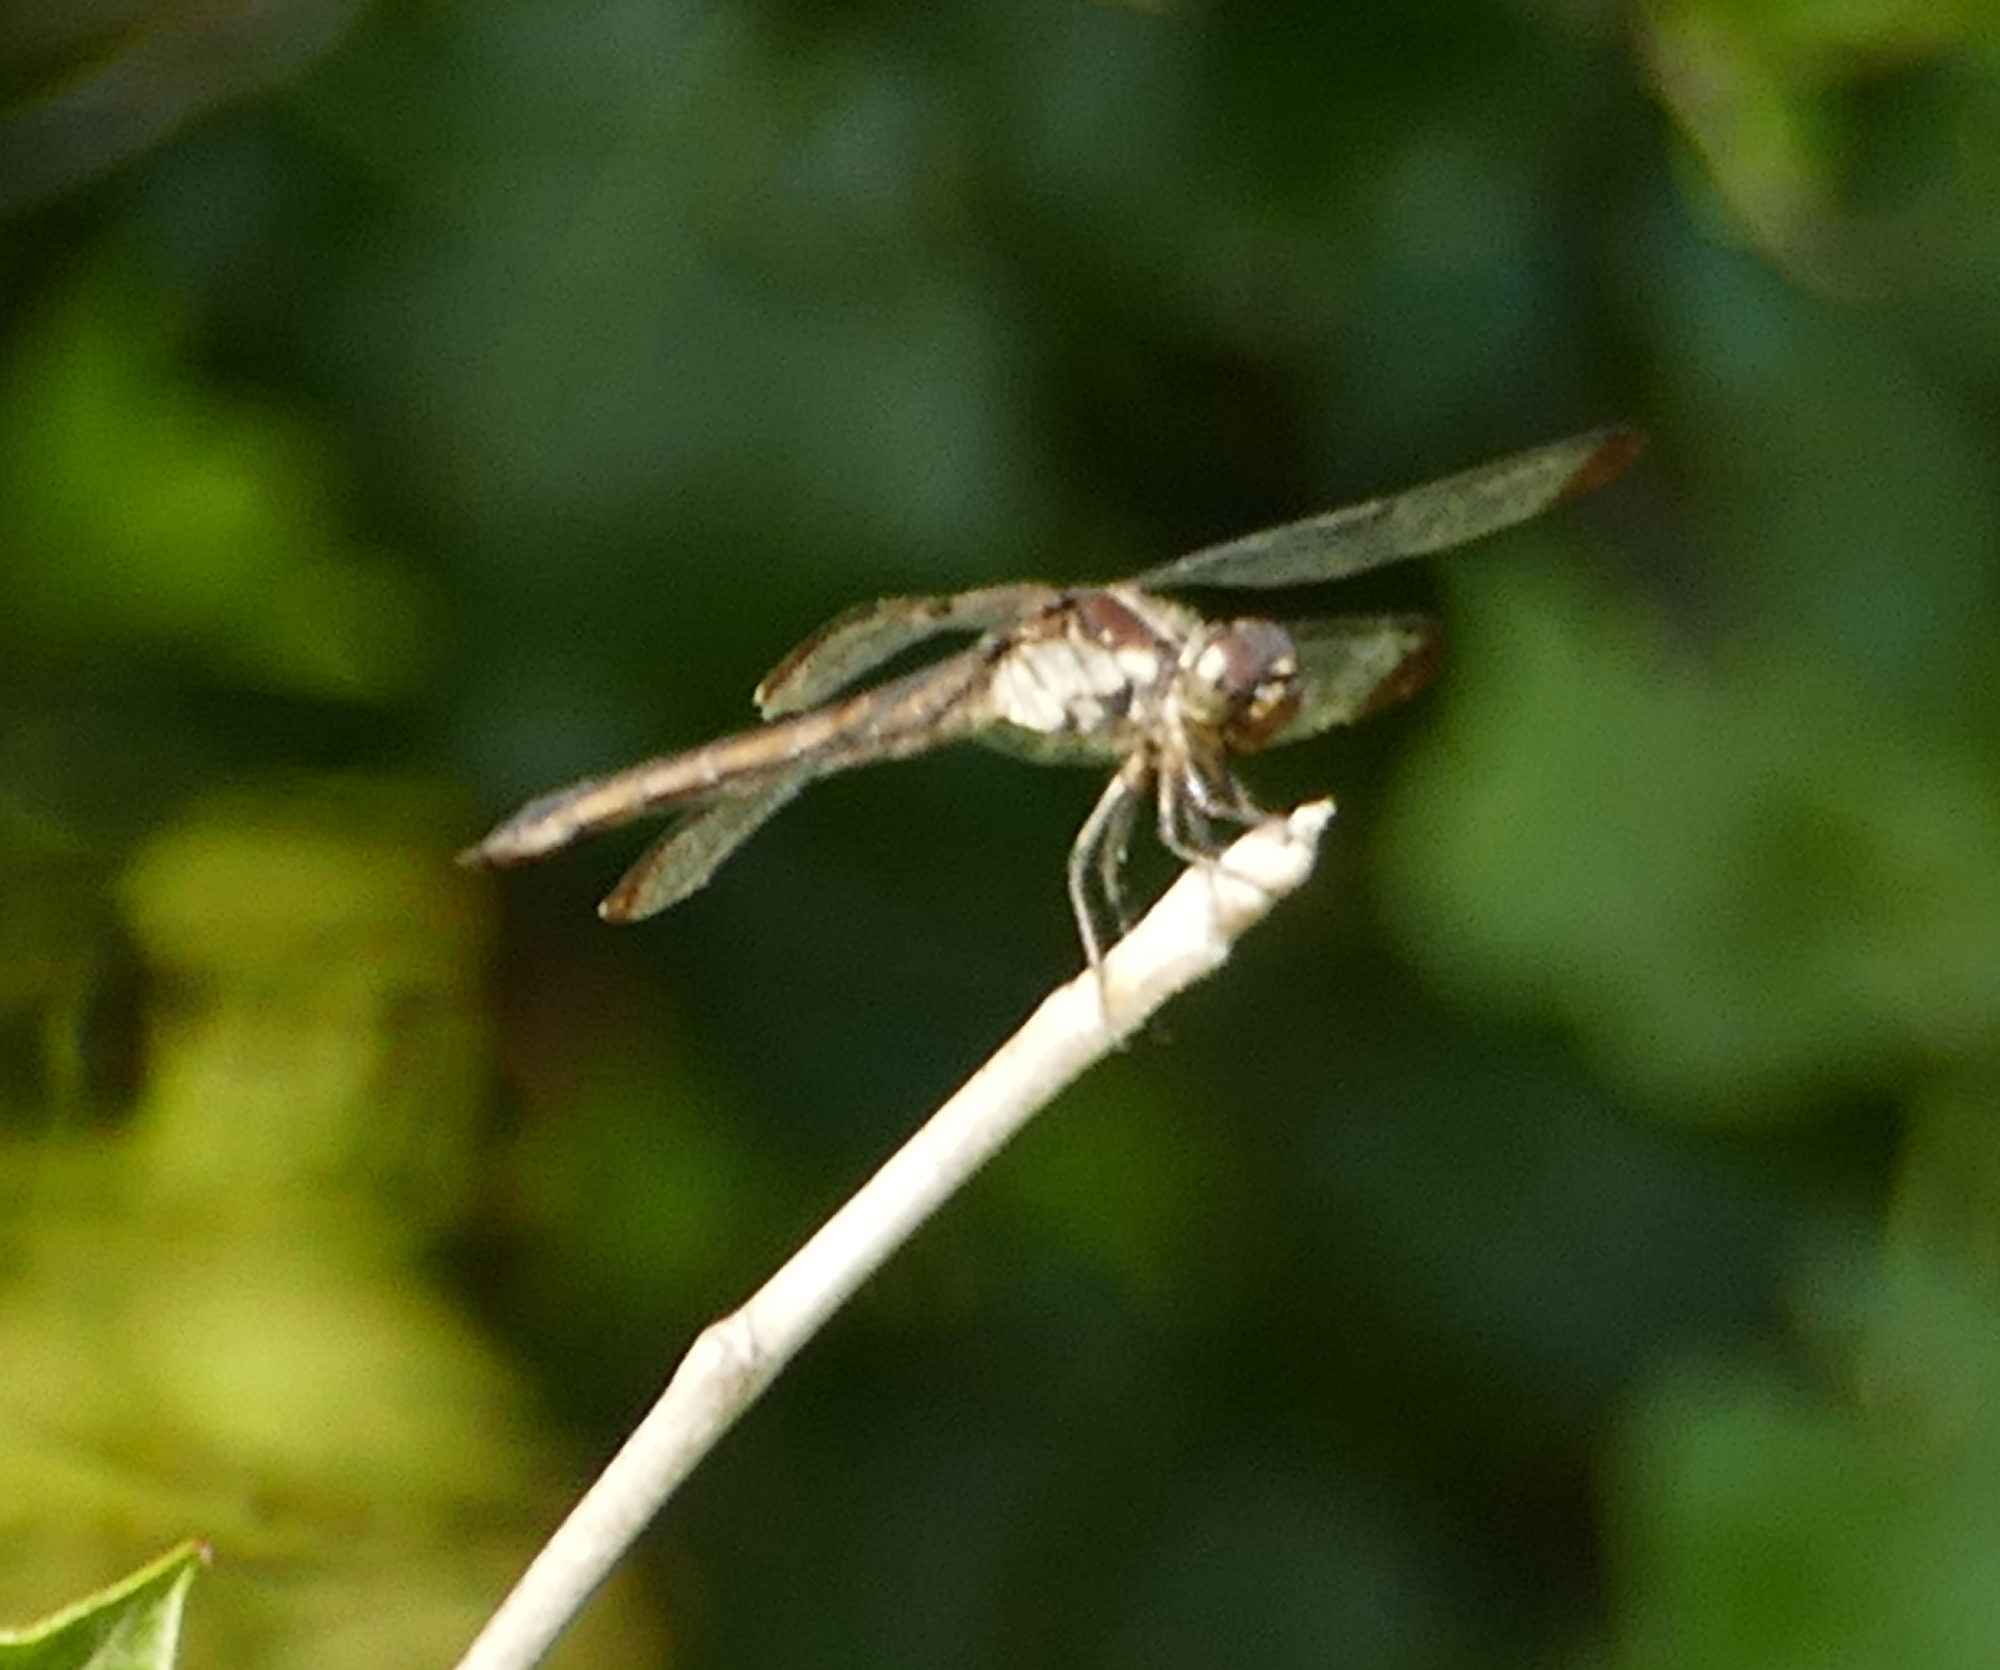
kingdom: Animalia
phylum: Arthropoda
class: Insecta
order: Odonata
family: Libellulidae
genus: Libellula
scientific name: Libellula incesta
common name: Slaty skimmer
